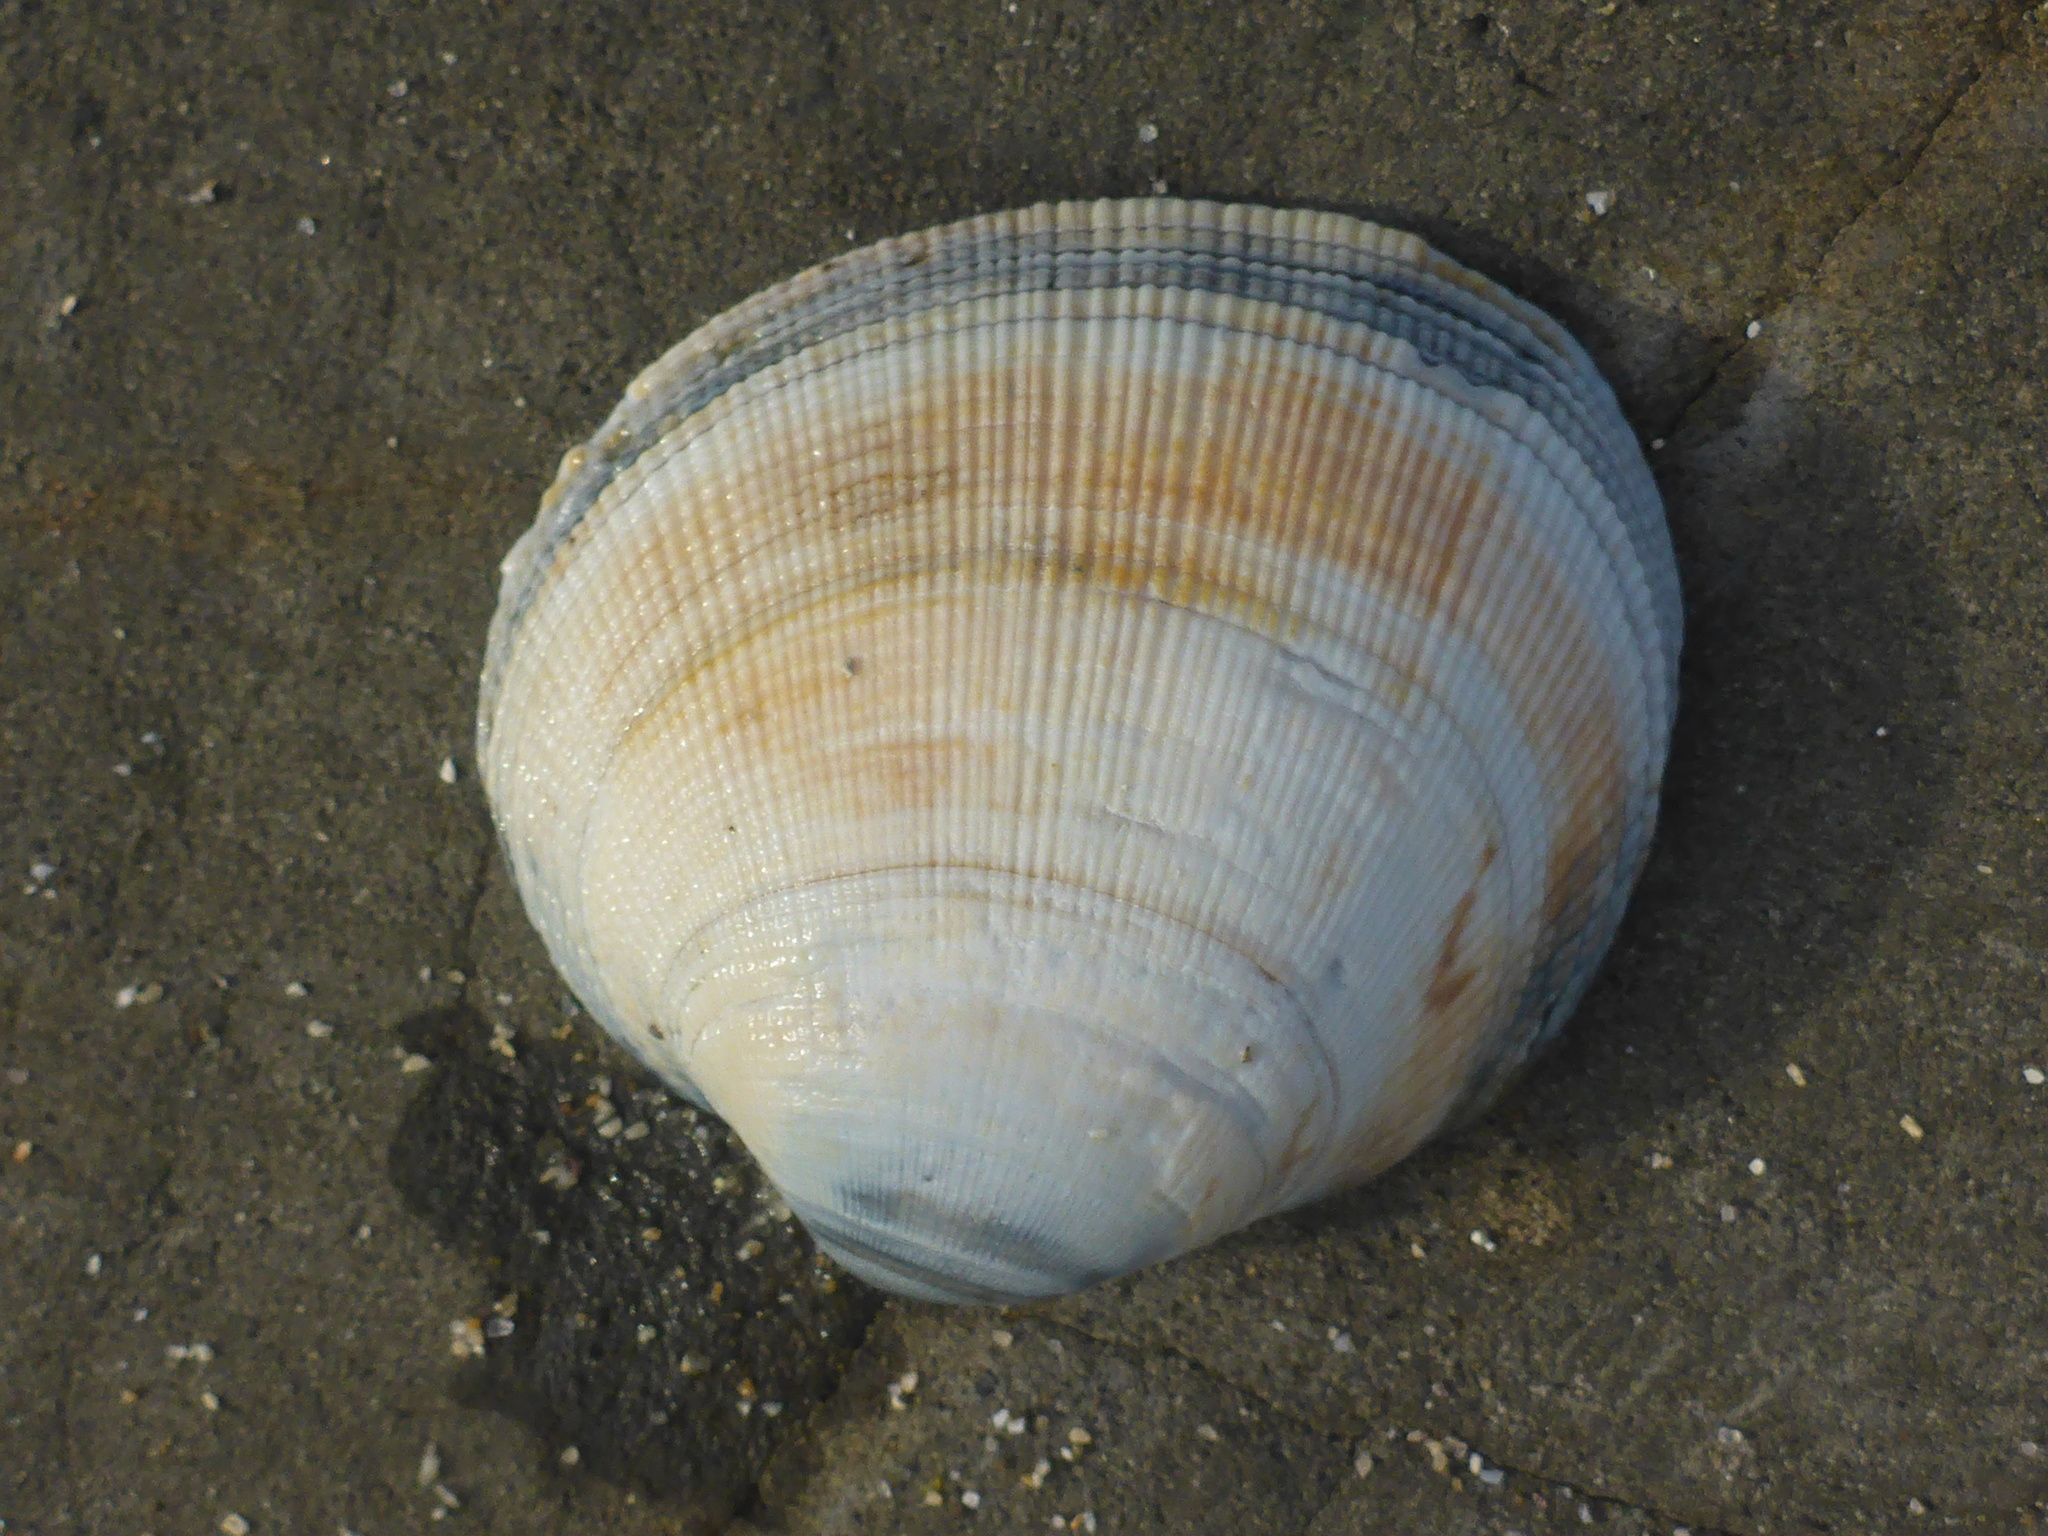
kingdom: Animalia
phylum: Mollusca
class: Bivalvia
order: Venerida
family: Veneridae
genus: Leukoma
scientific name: Leukoma staminea
